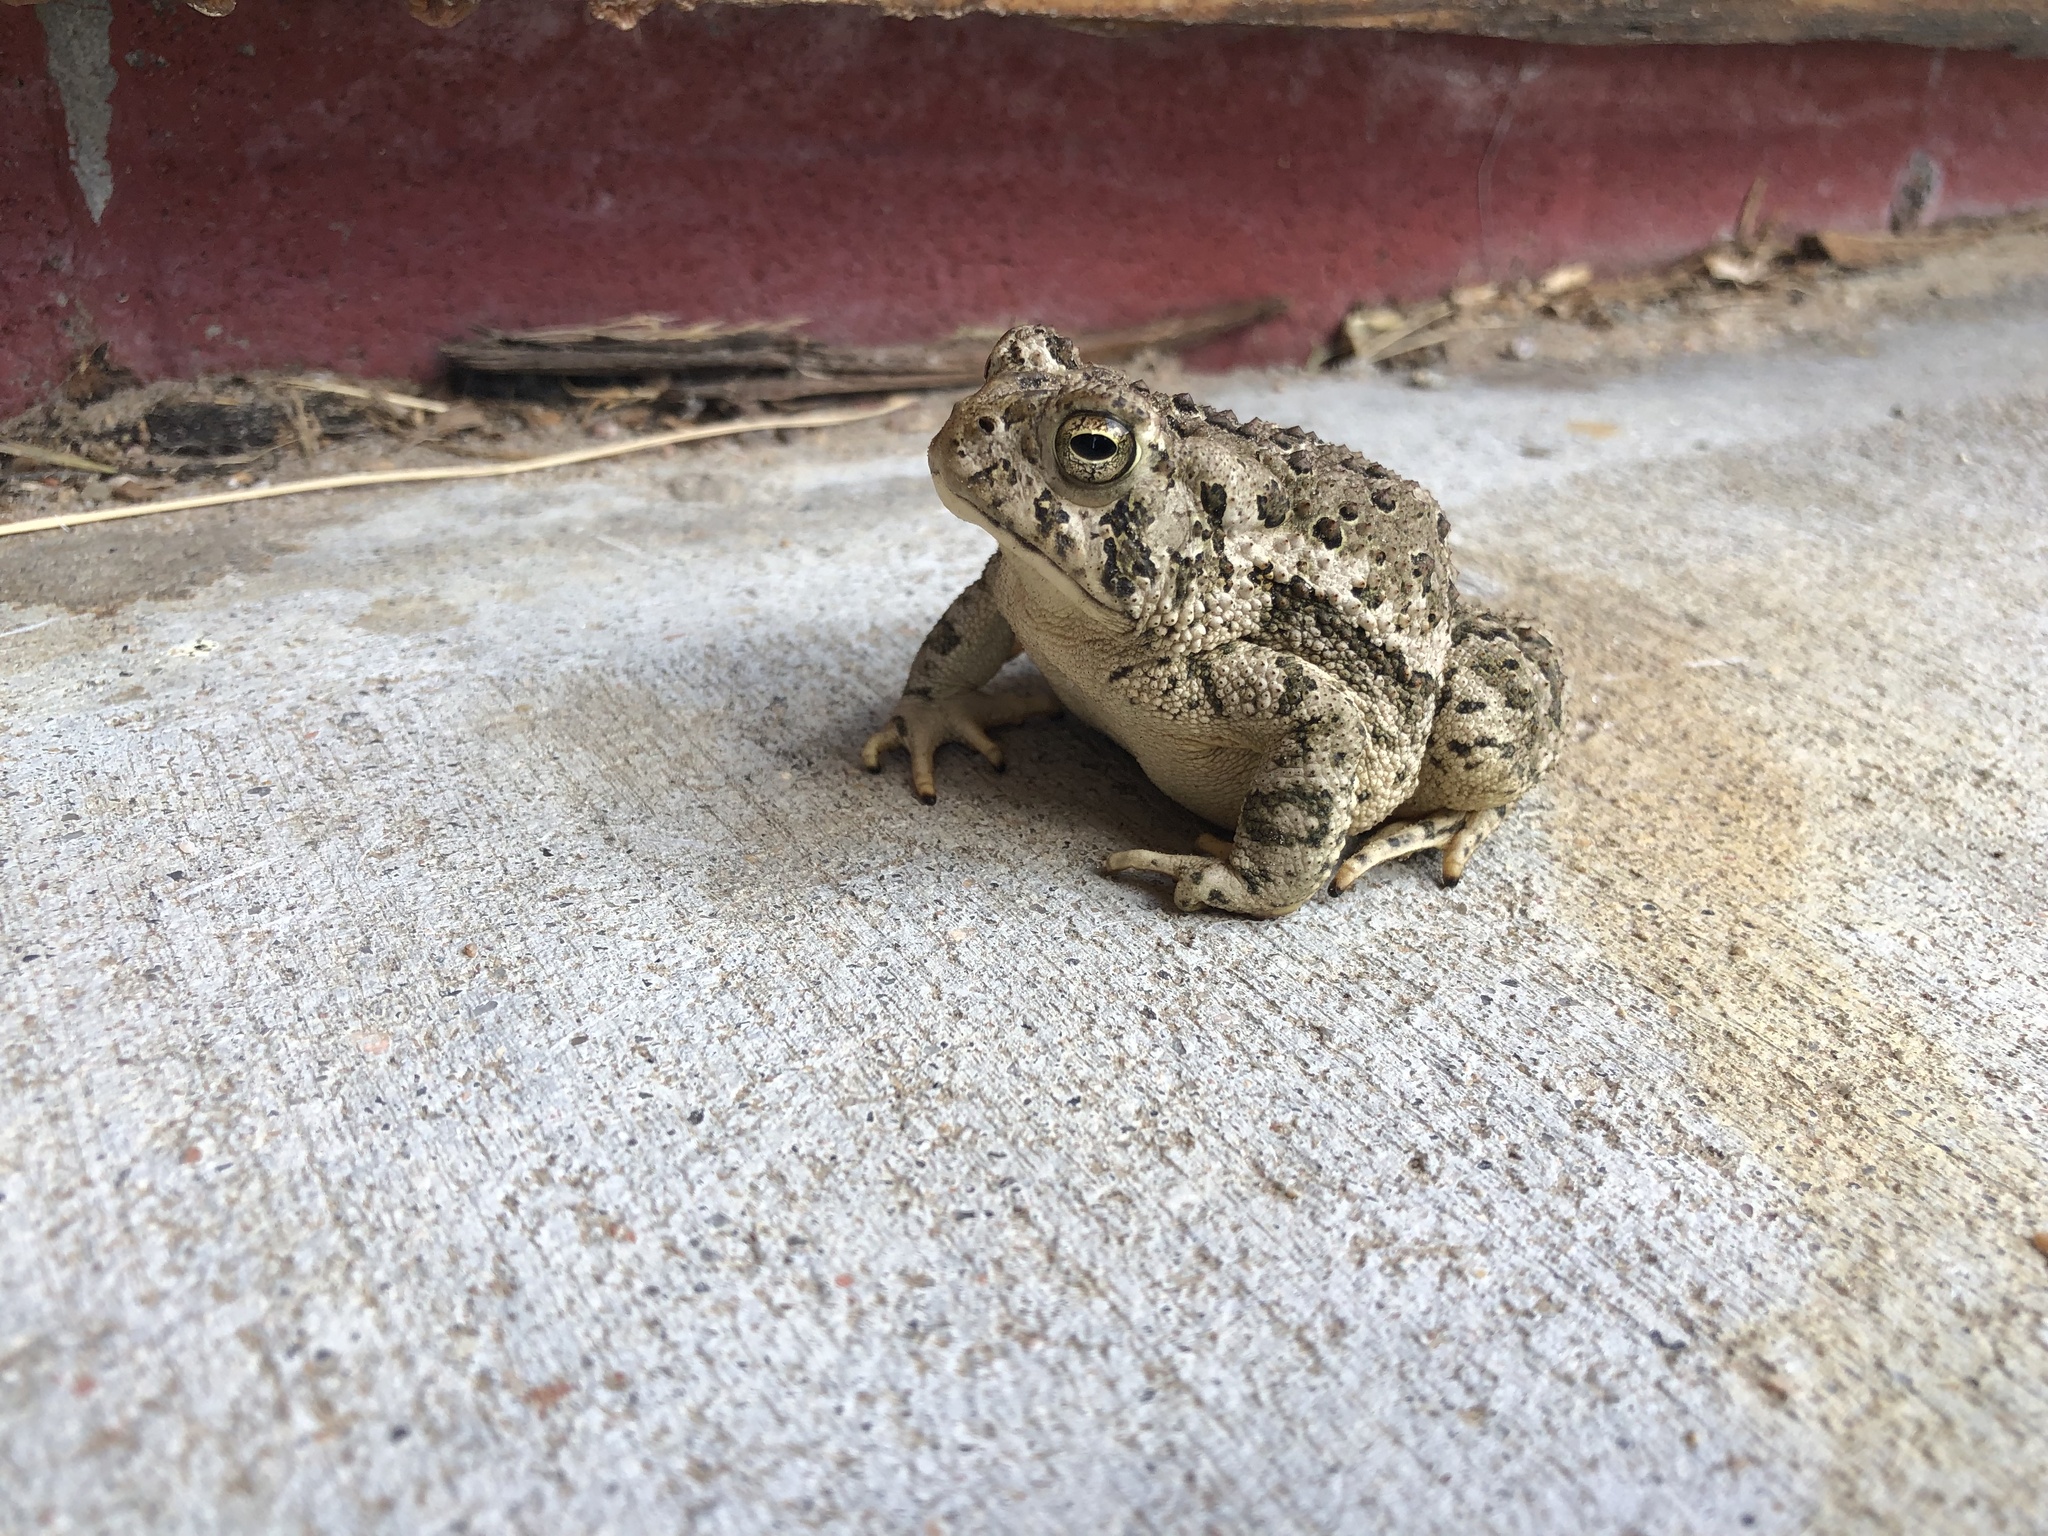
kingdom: Animalia
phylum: Chordata
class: Amphibia
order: Anura
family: Bufonidae
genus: Anaxyrus
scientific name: Anaxyrus woodhousii
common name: Woodhouse's toad
